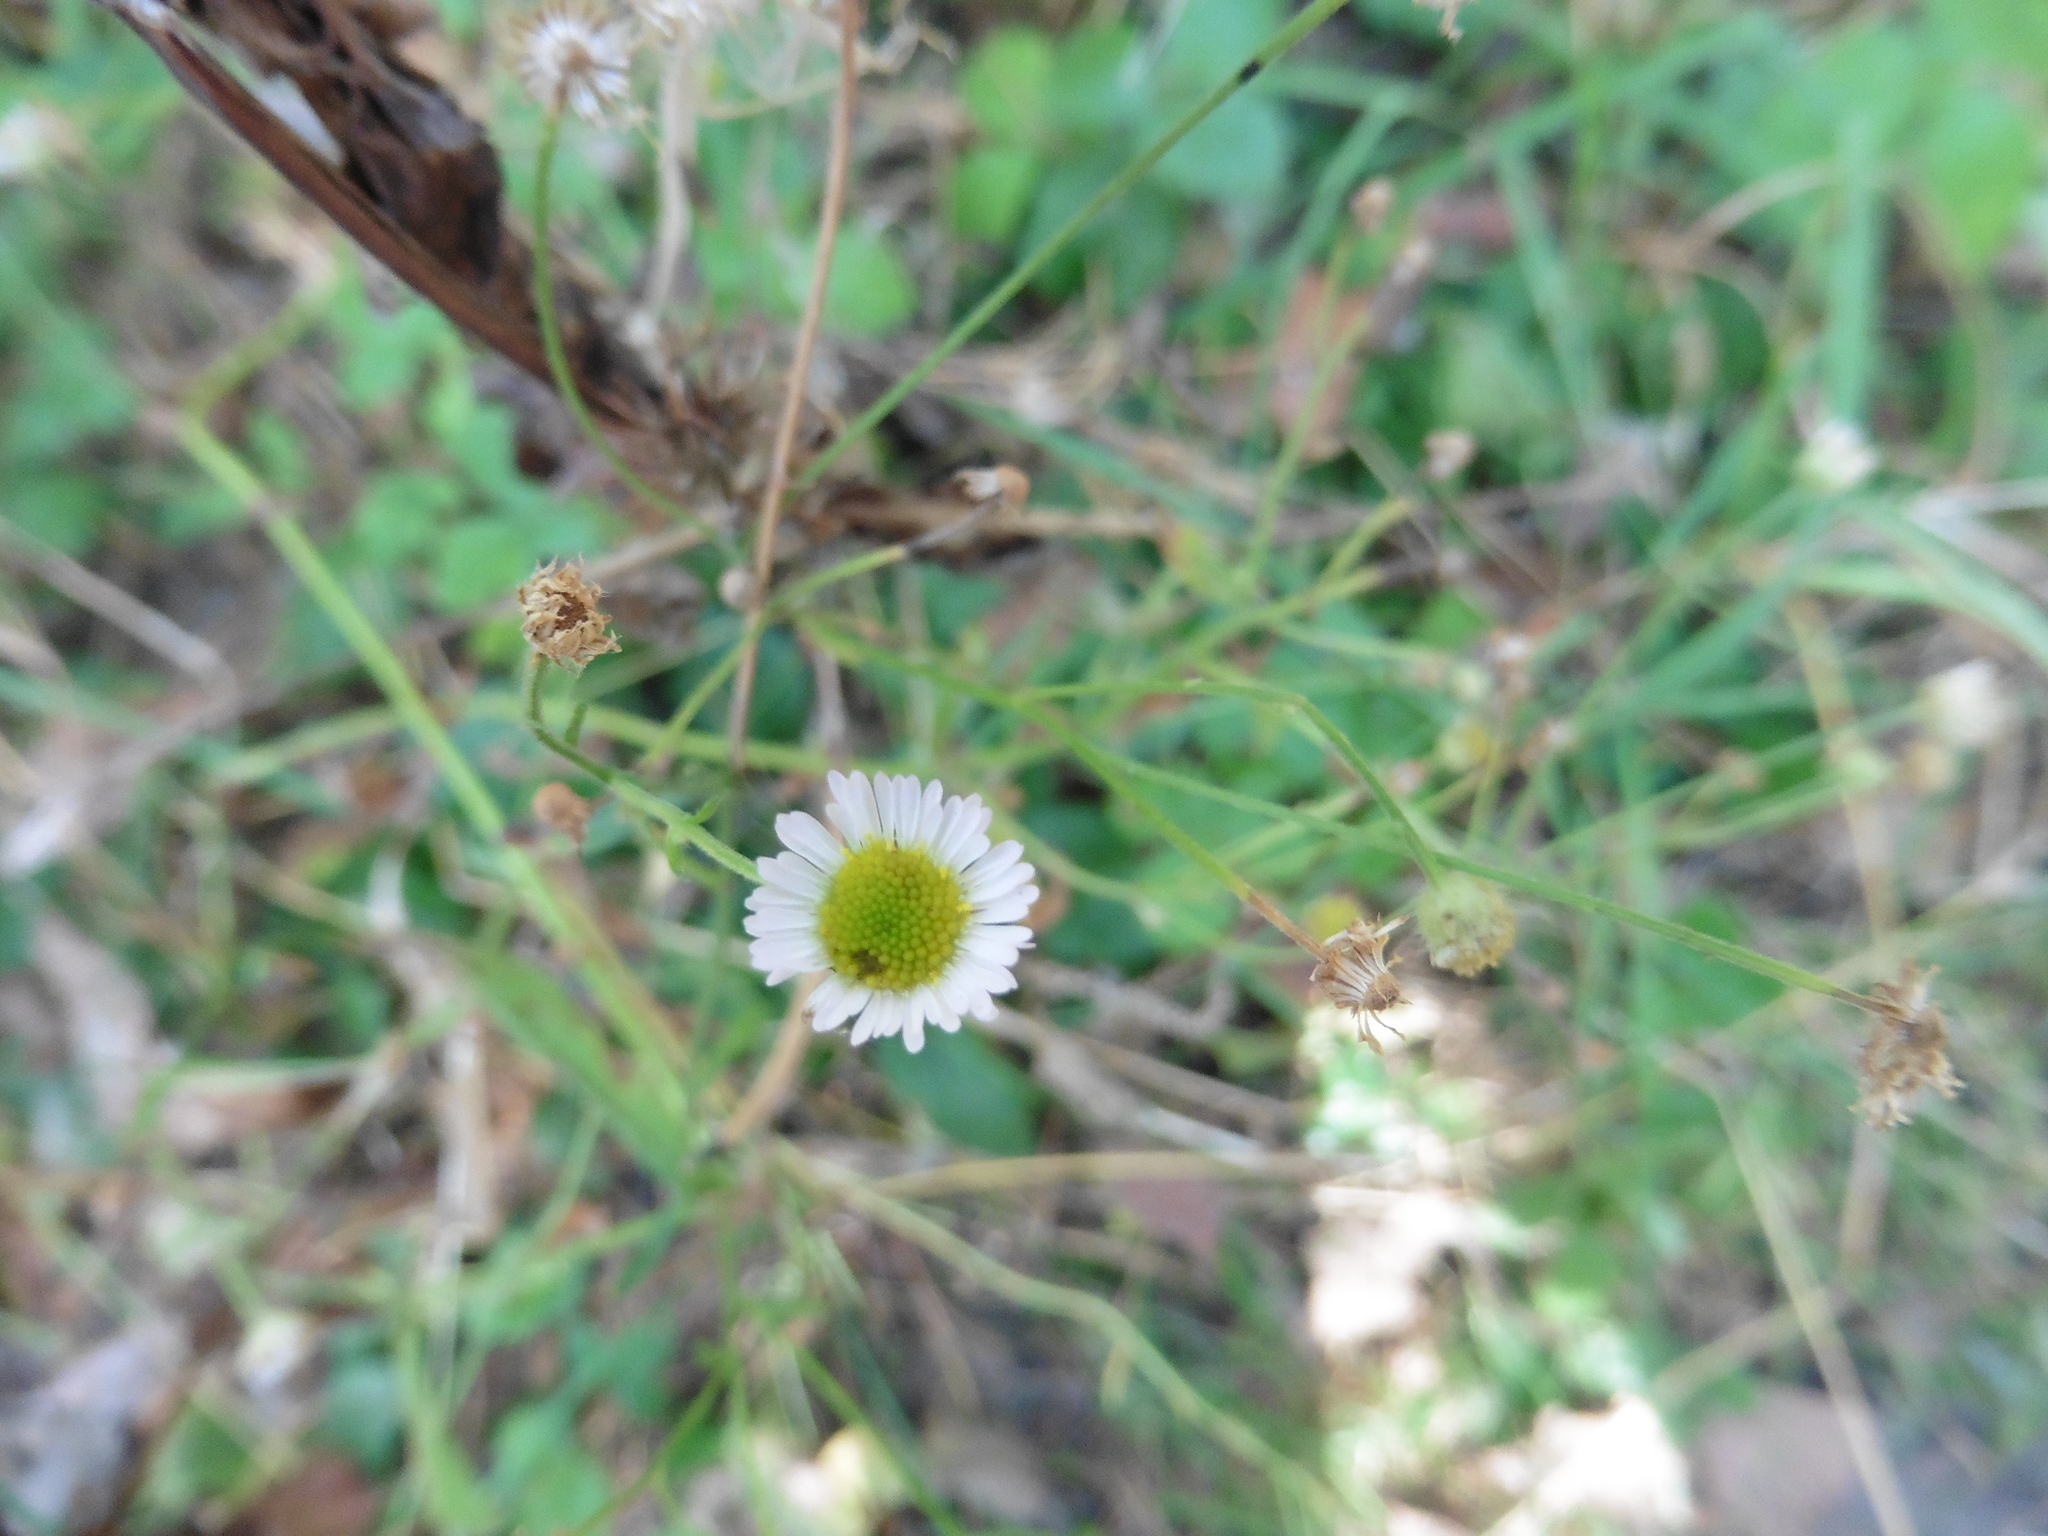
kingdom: Plantae
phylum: Tracheophyta
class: Magnoliopsida
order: Asterales
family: Asteraceae
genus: Erigeron
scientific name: Erigeron strigosus
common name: Common eastern fleabane
